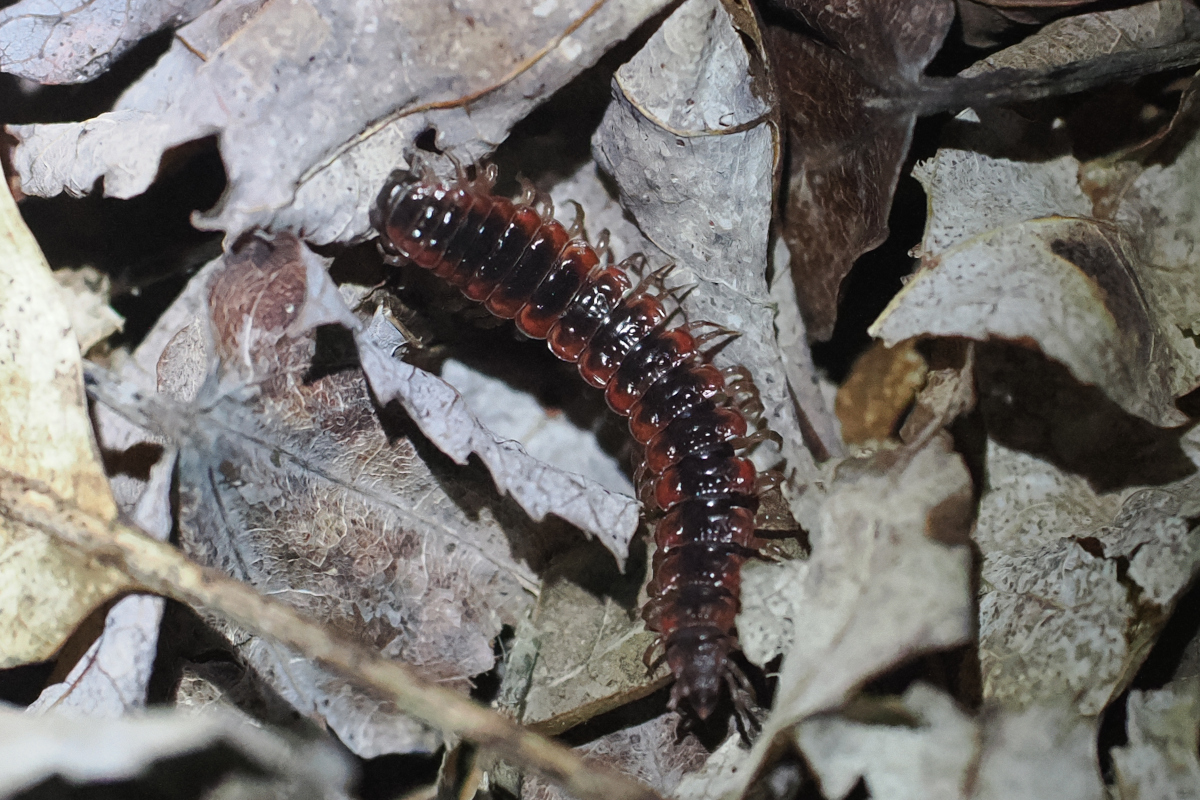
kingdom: Animalia
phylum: Arthropoda
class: Diplopoda
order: Polydesmida
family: Polydesmidae
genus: Pseudopolydesmus
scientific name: Pseudopolydesmus canadensis
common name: Canadian flat-back millipede
